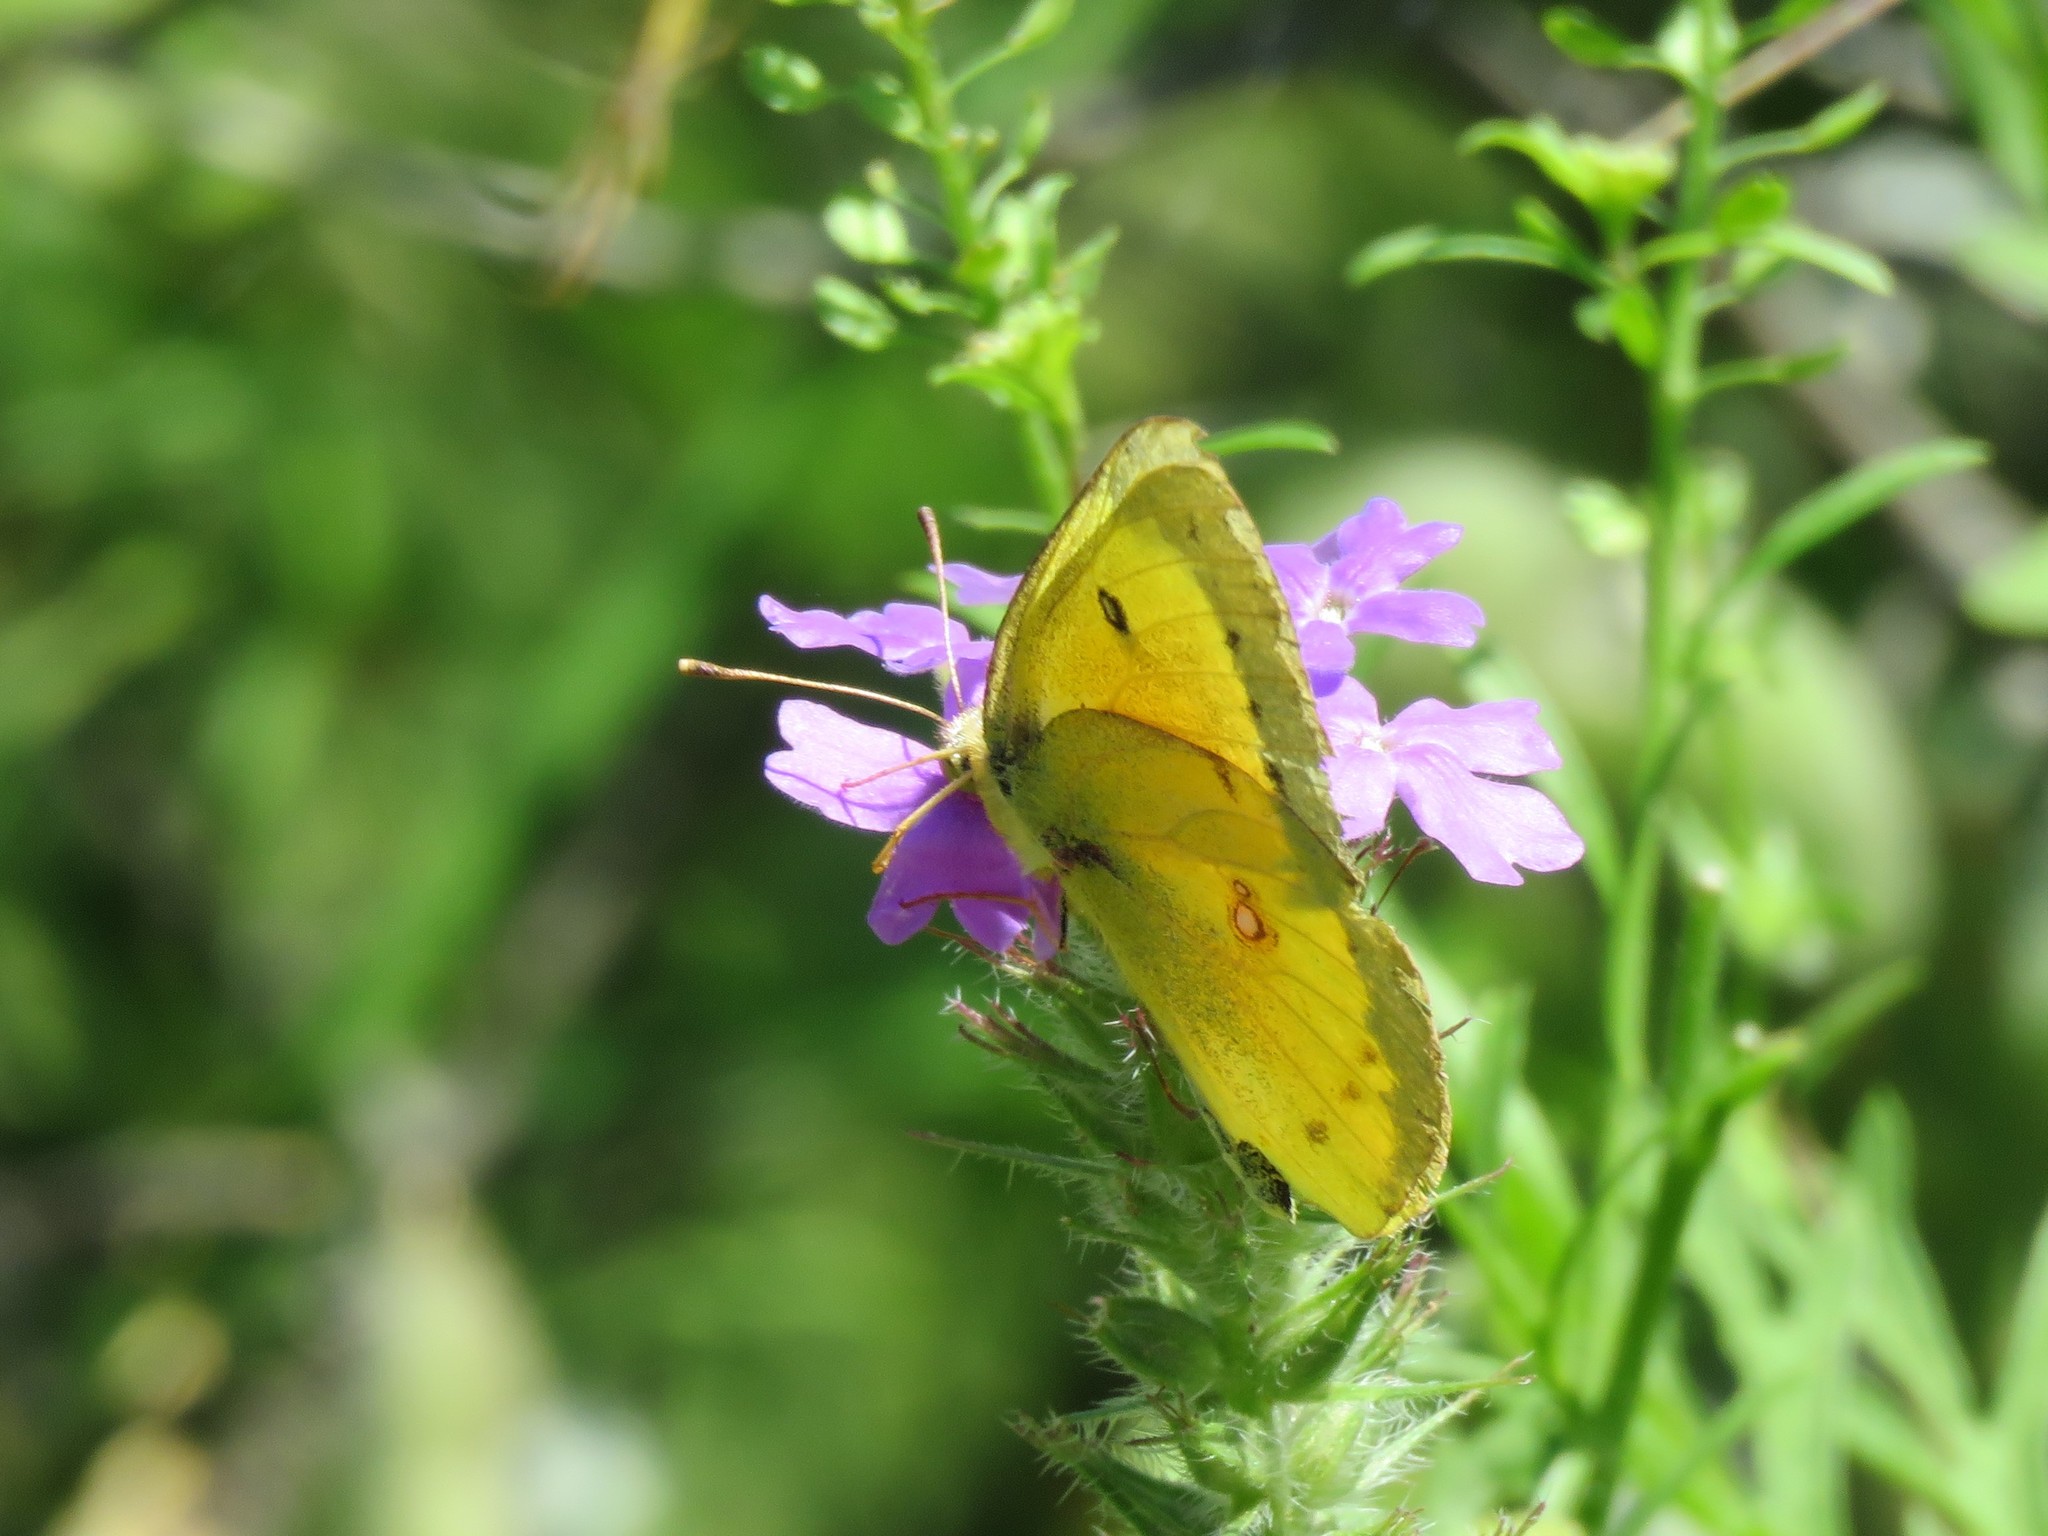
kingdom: Animalia
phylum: Arthropoda
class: Insecta
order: Lepidoptera
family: Pieridae
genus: Colias
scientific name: Colias eurytheme
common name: Alfalfa butterfly
